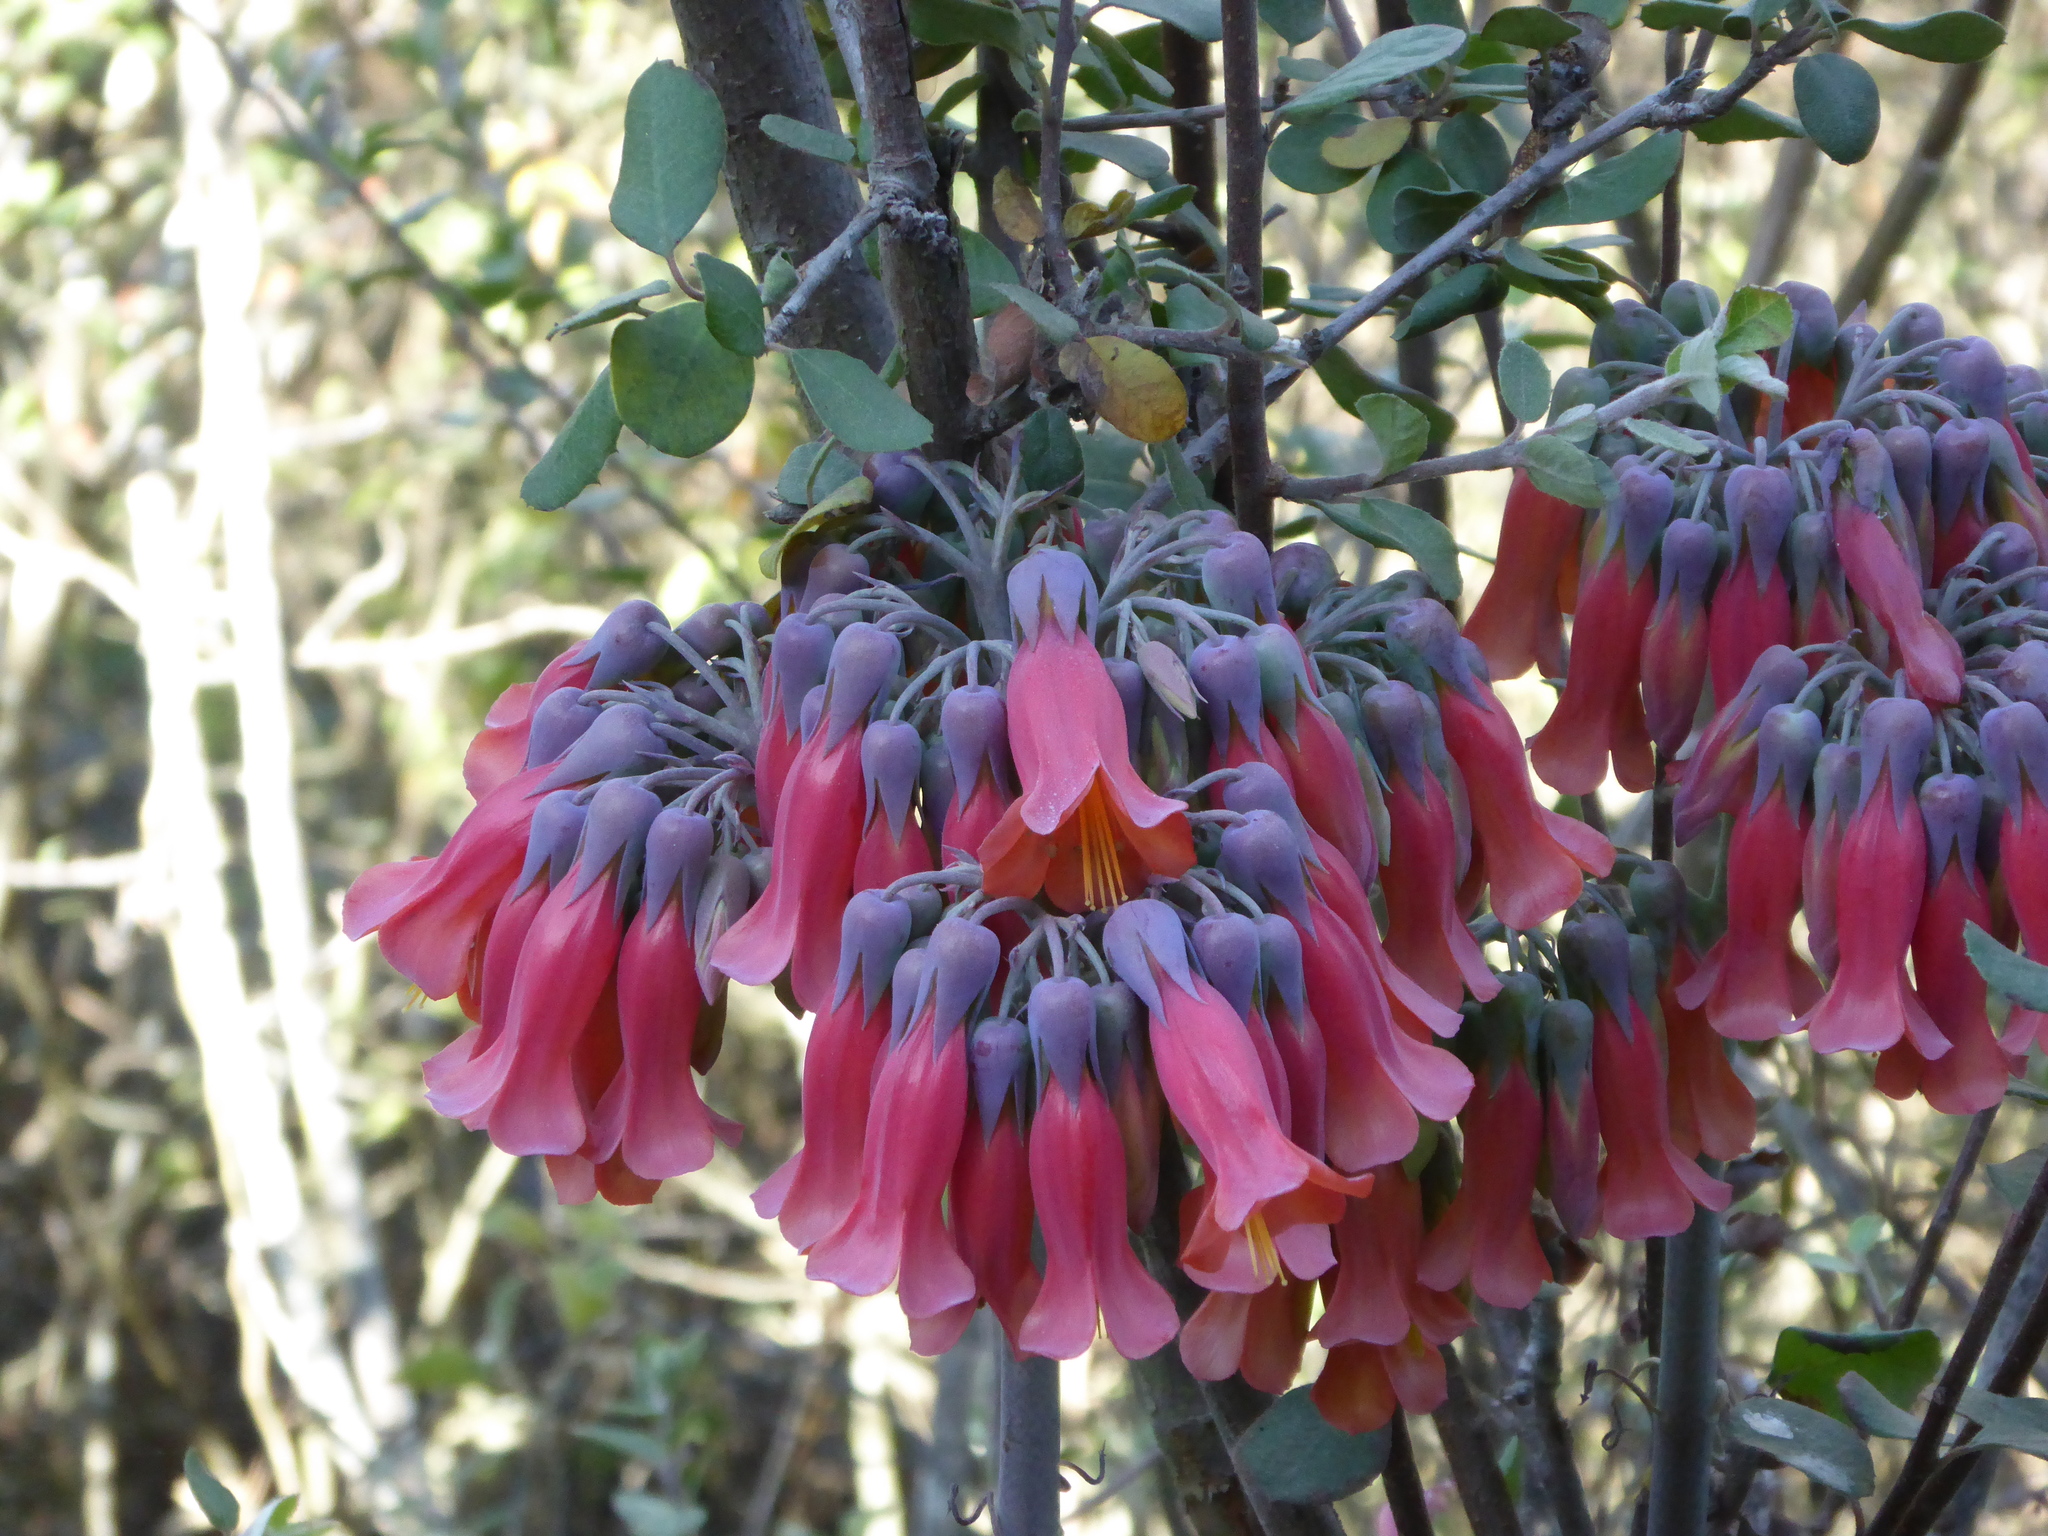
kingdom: Chromista
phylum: Ciliophora
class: Gymnostomatea
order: Spathidiida
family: Spathidiidae
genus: Bryophyllum
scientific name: Bryophyllum
